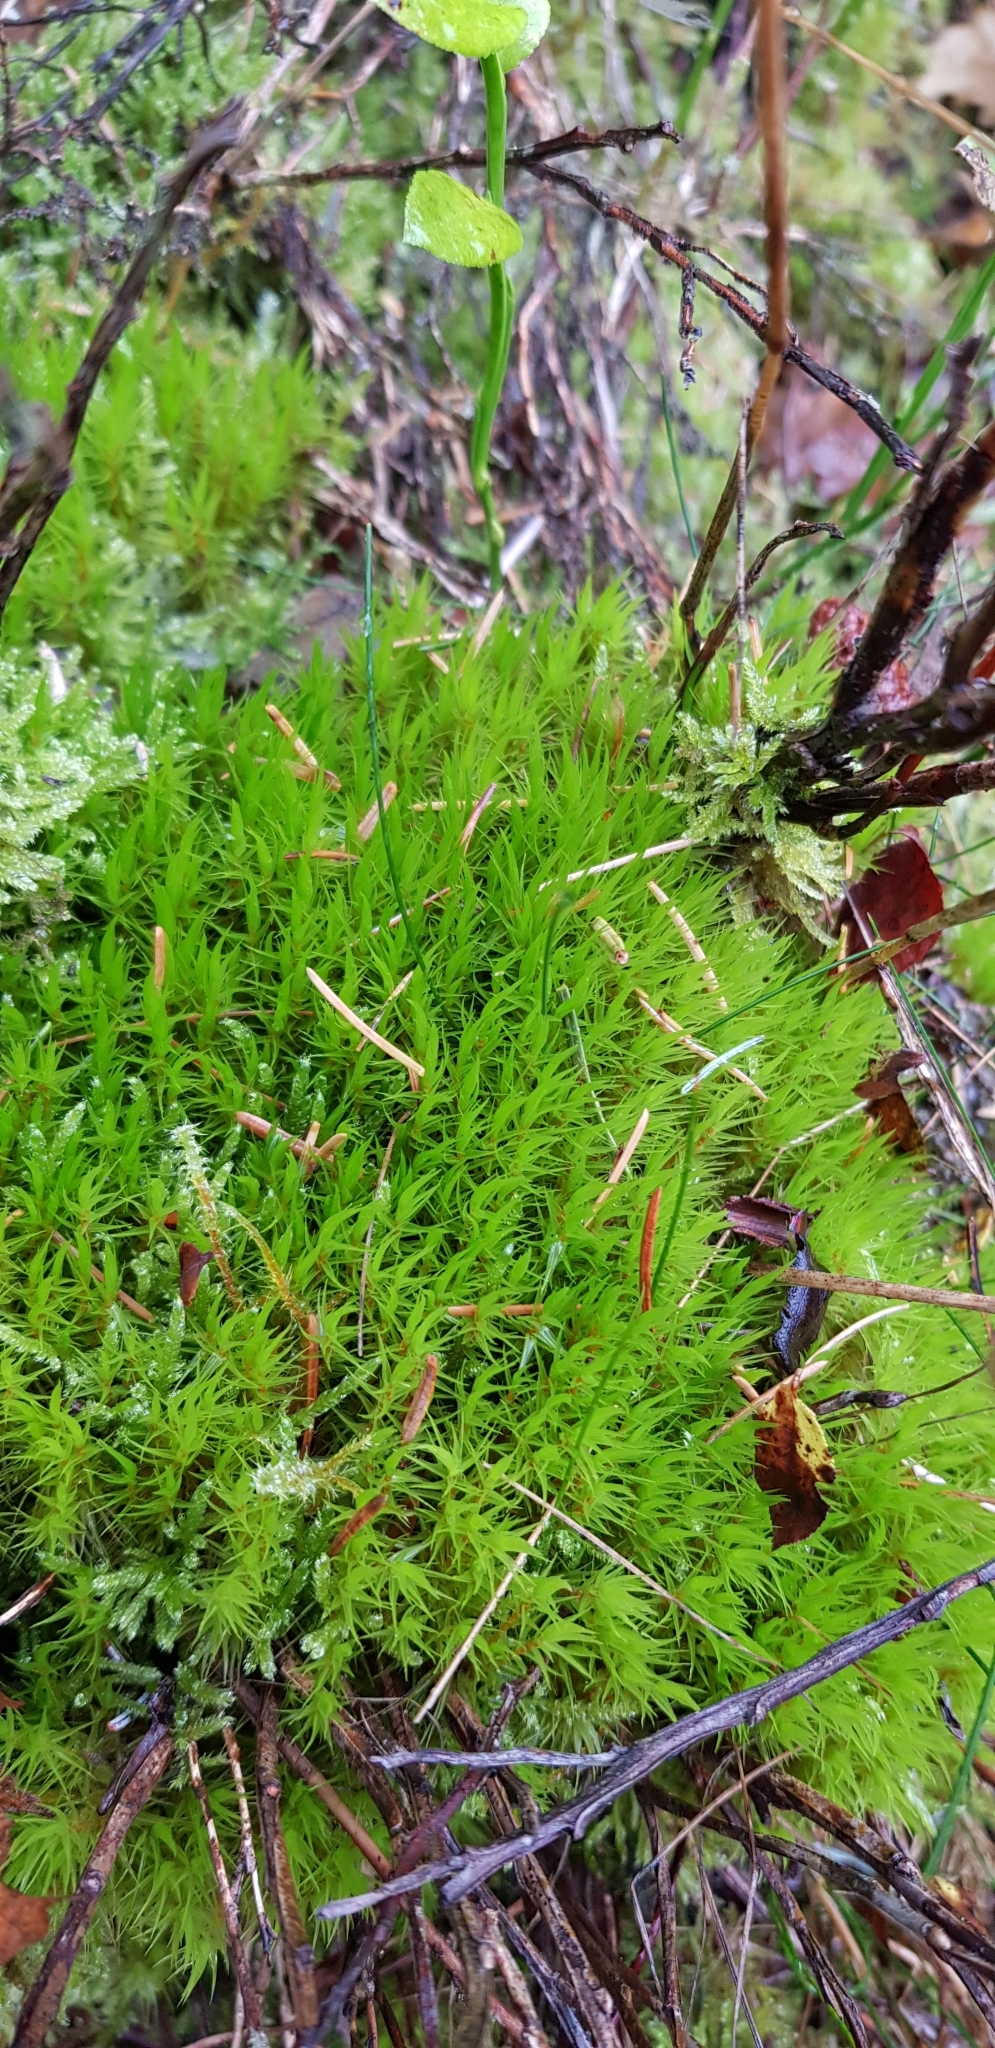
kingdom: Plantae
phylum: Bryophyta
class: Bryopsida
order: Dicranales
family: Dicranaceae
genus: Dicranum
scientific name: Dicranum scoparium
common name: Broom fork-moss
